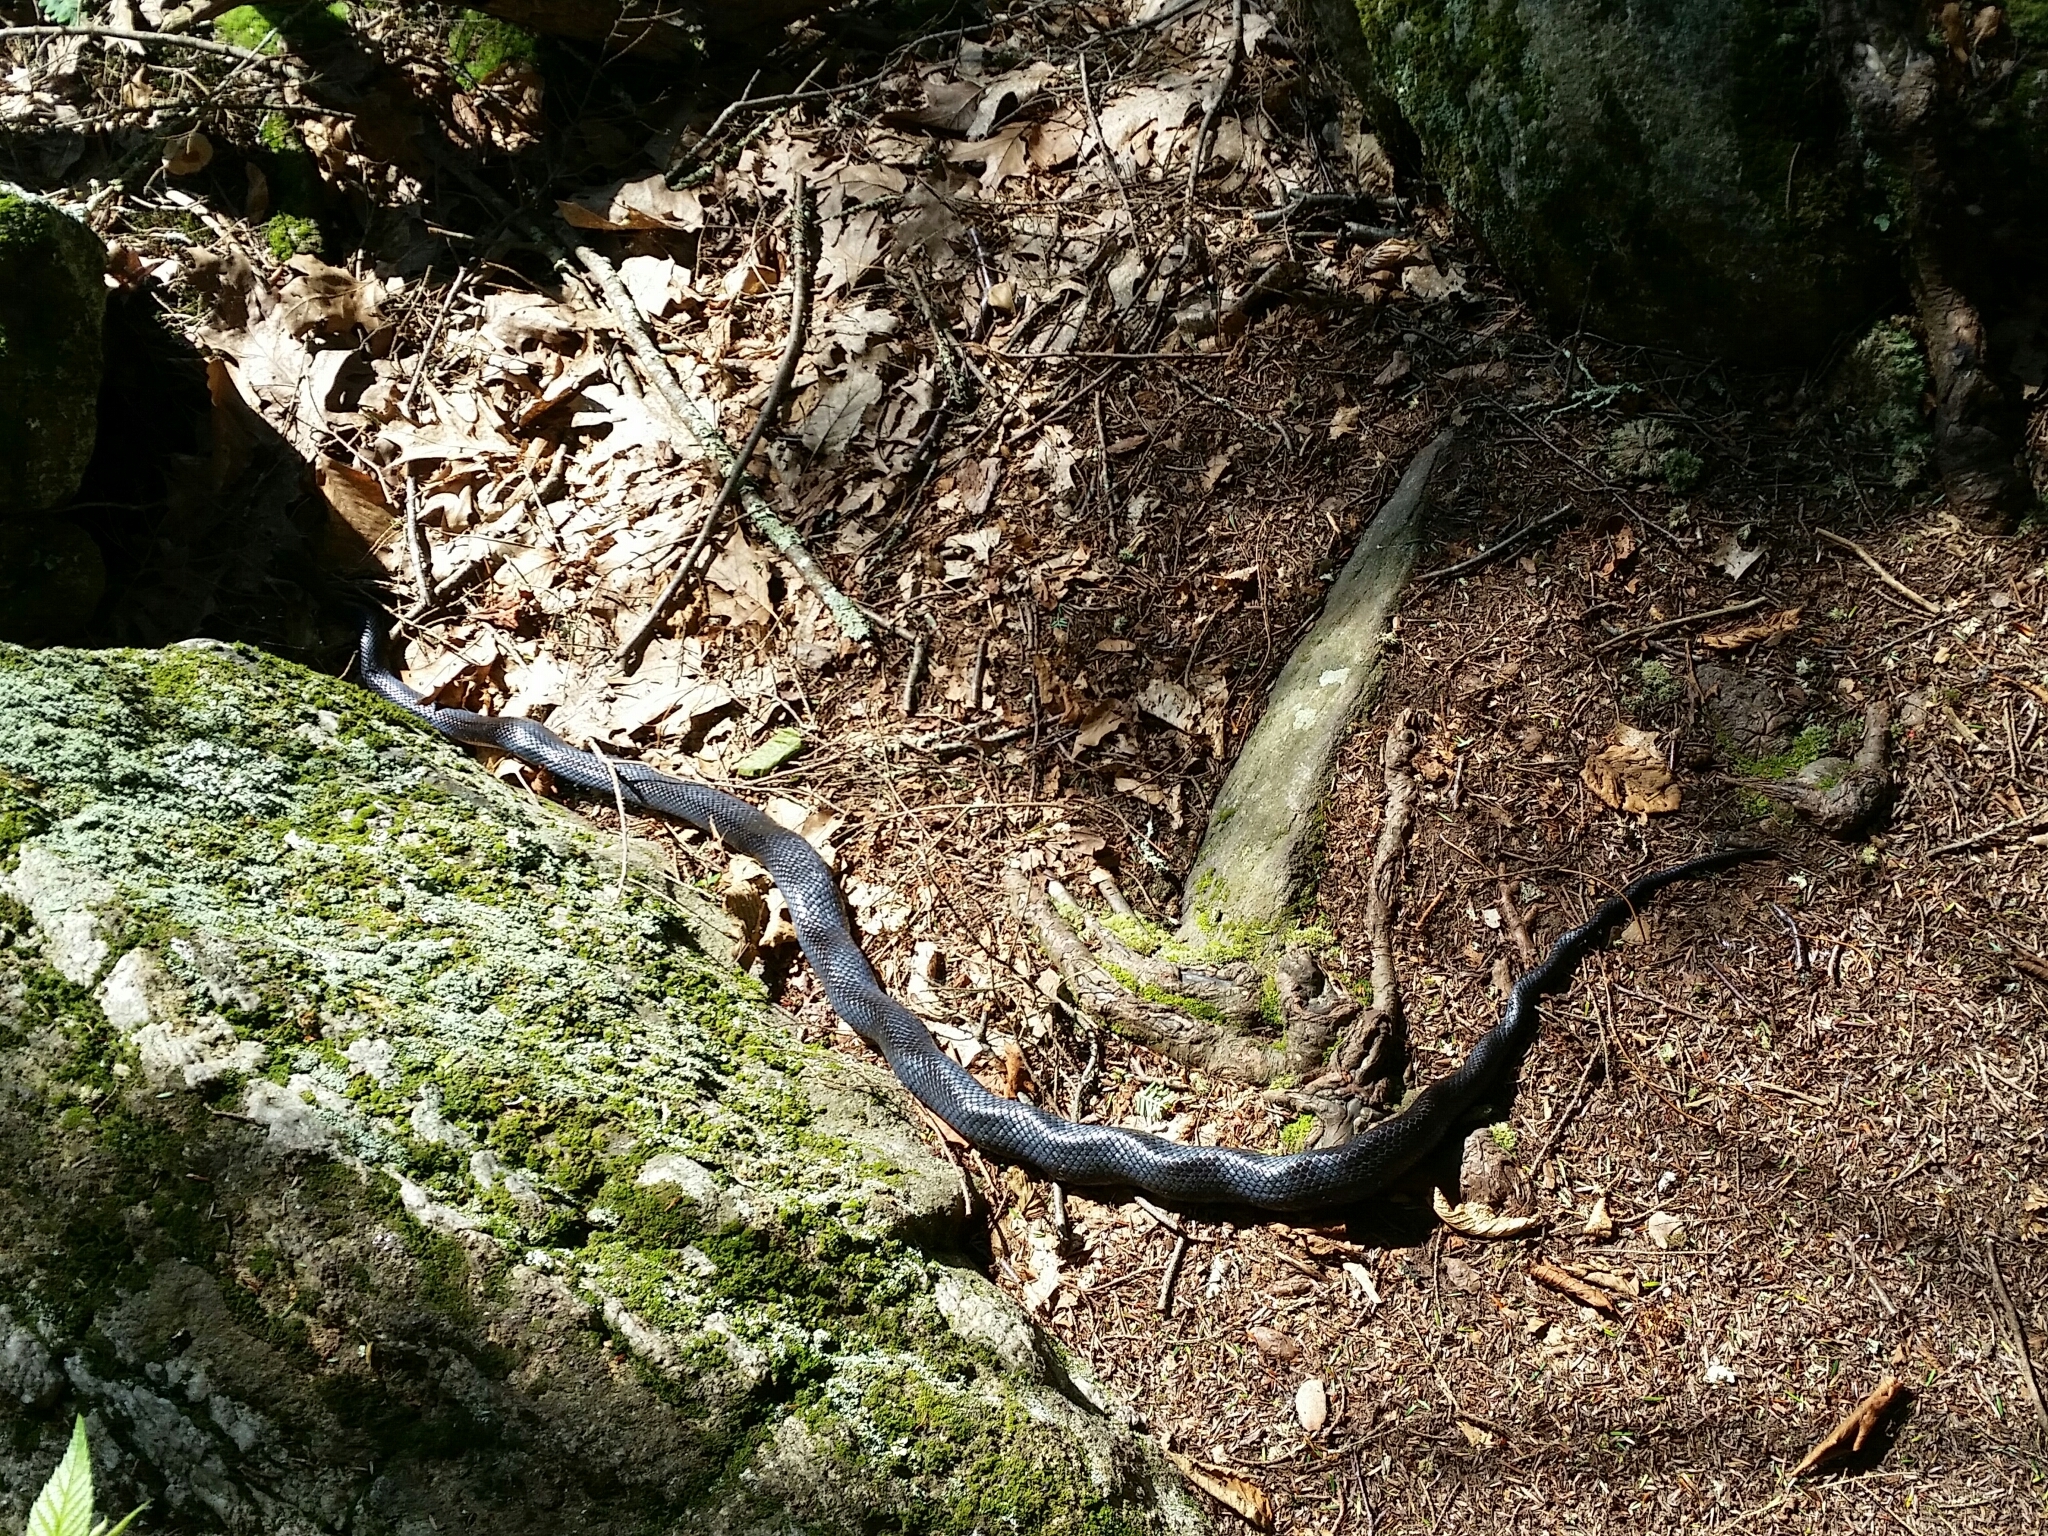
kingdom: Animalia
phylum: Chordata
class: Squamata
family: Colubridae
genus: Pantherophis
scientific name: Pantherophis alleghaniensis
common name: Eastern rat snake
